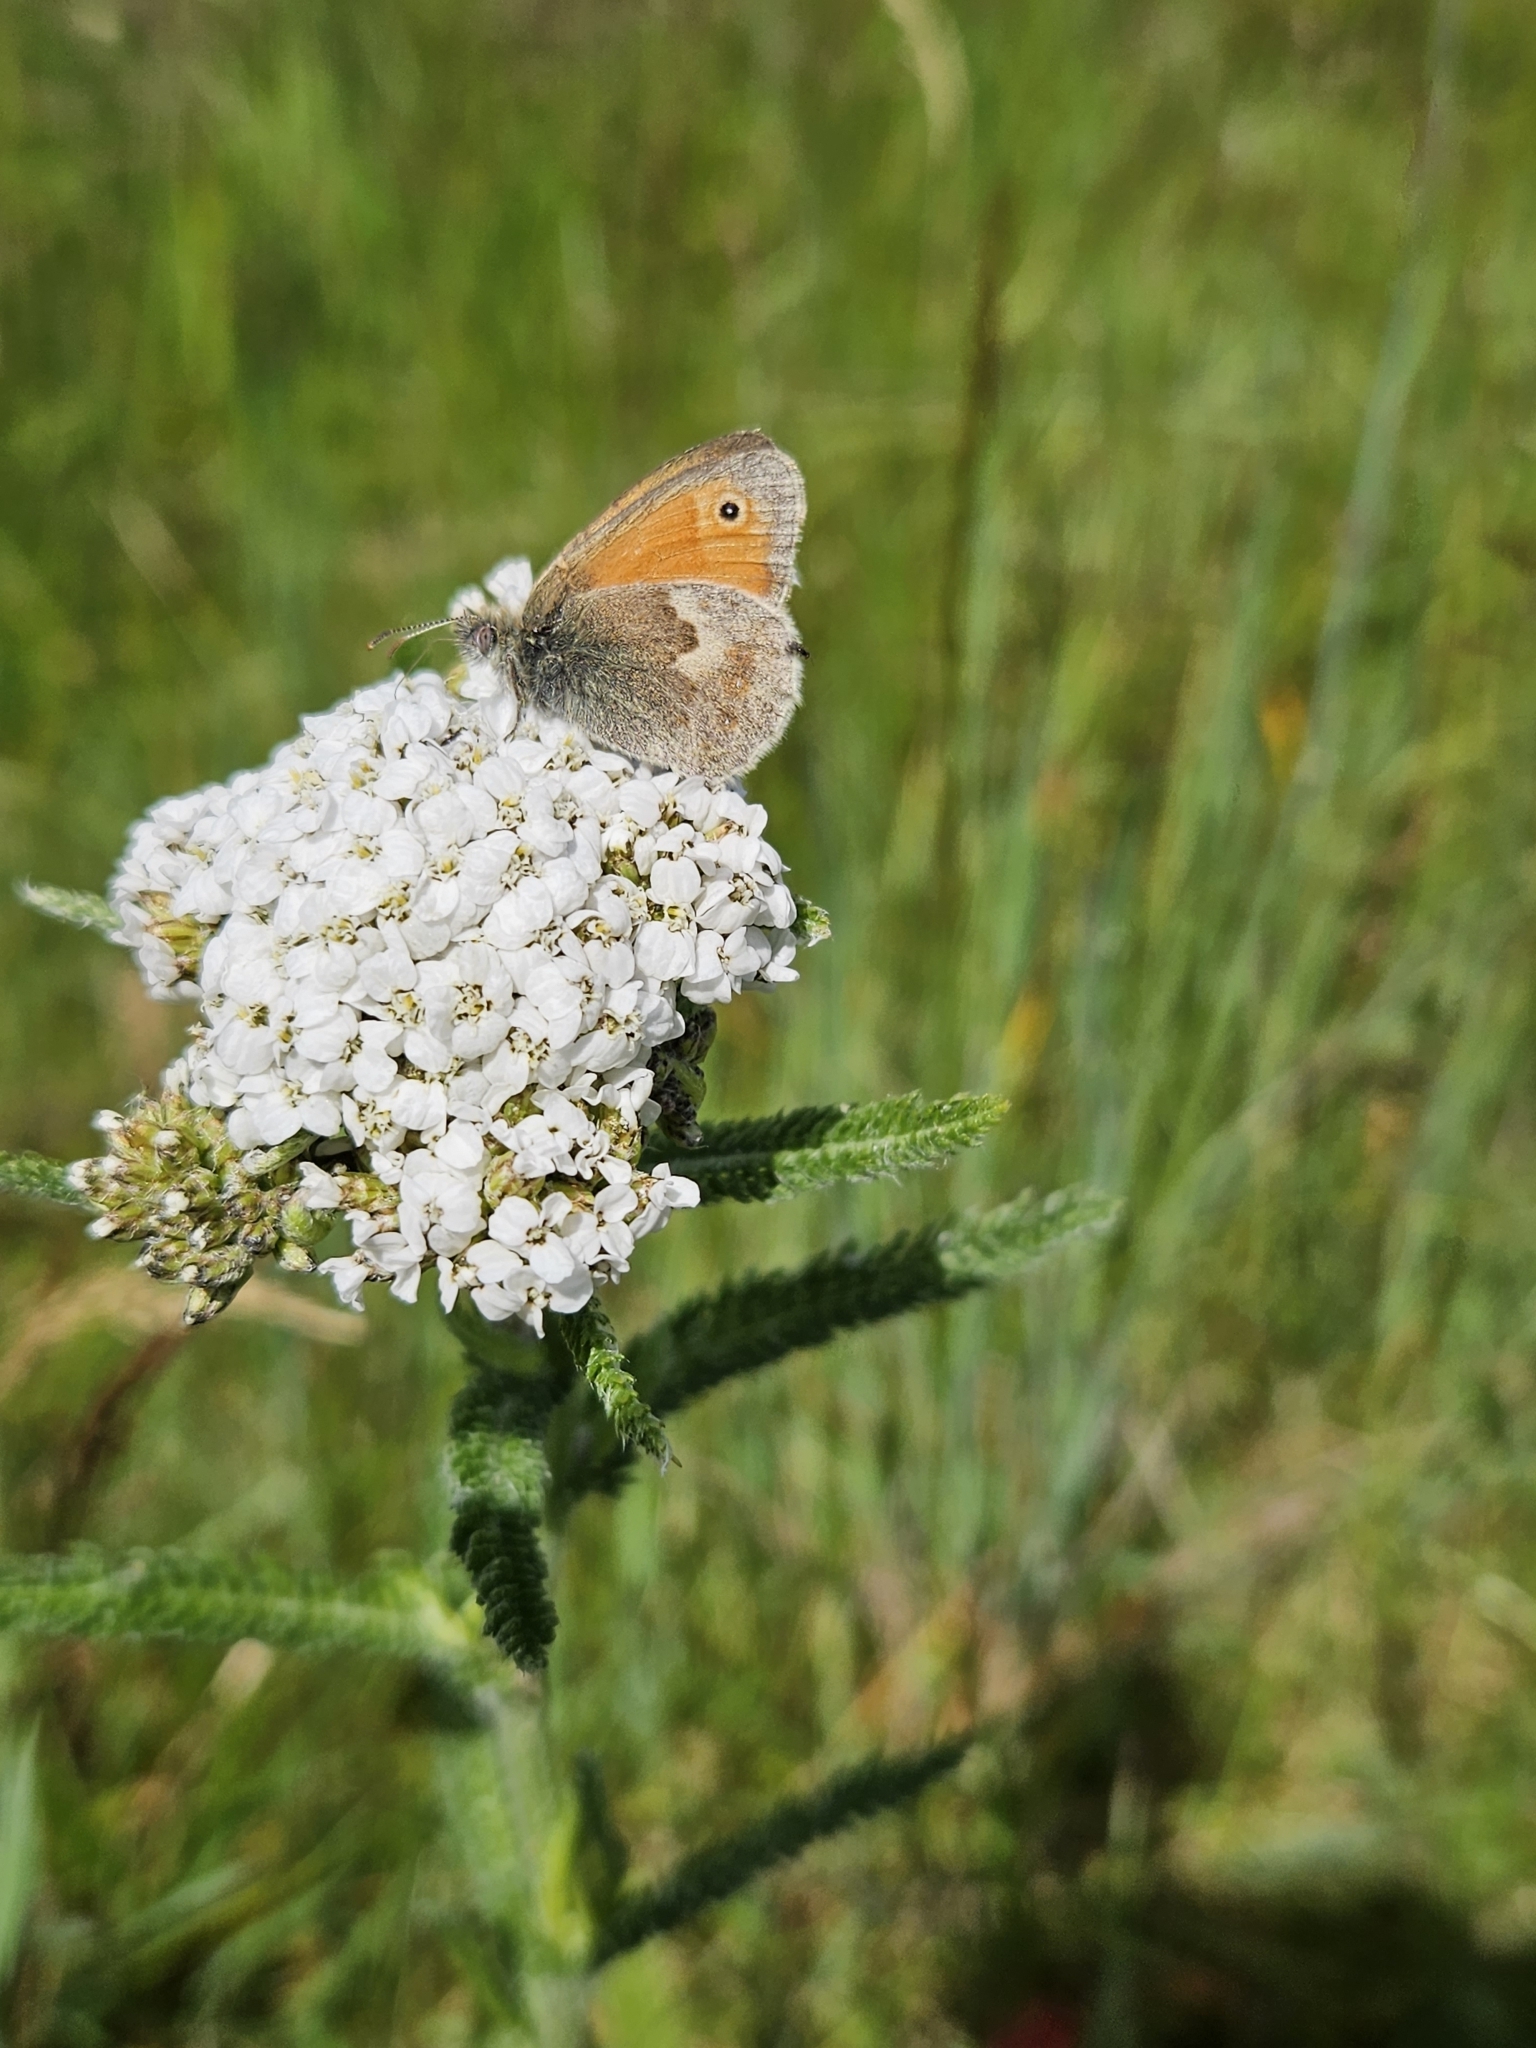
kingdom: Animalia
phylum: Arthropoda
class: Insecta
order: Lepidoptera
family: Nymphalidae
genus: Coenonympha
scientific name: Coenonympha pamphilus
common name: Small heath
